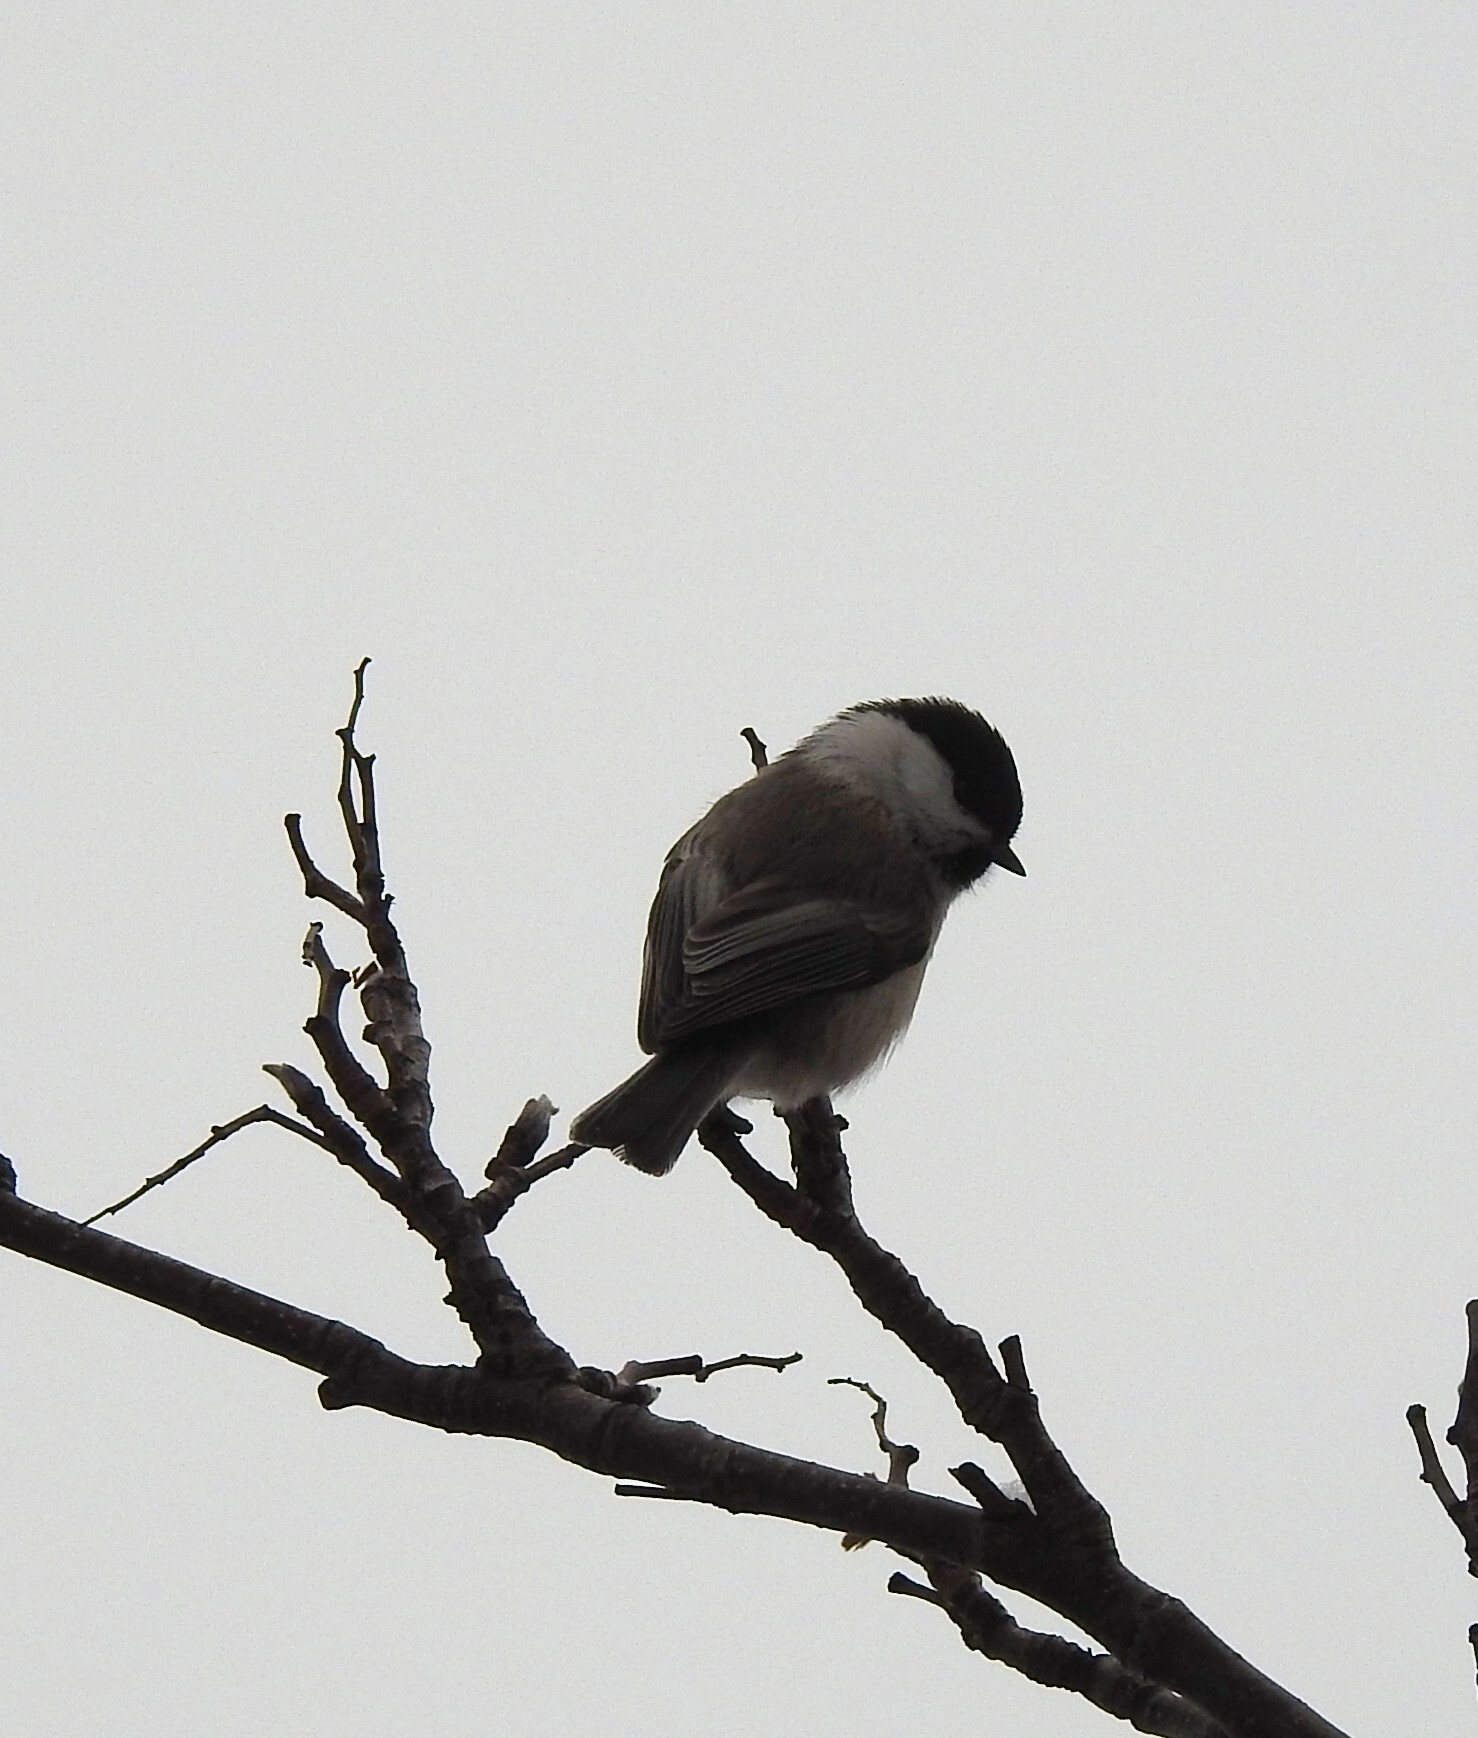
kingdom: Animalia
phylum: Chordata
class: Aves
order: Passeriformes
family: Paridae
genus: Poecile
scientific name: Poecile montanus
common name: Willow tit
